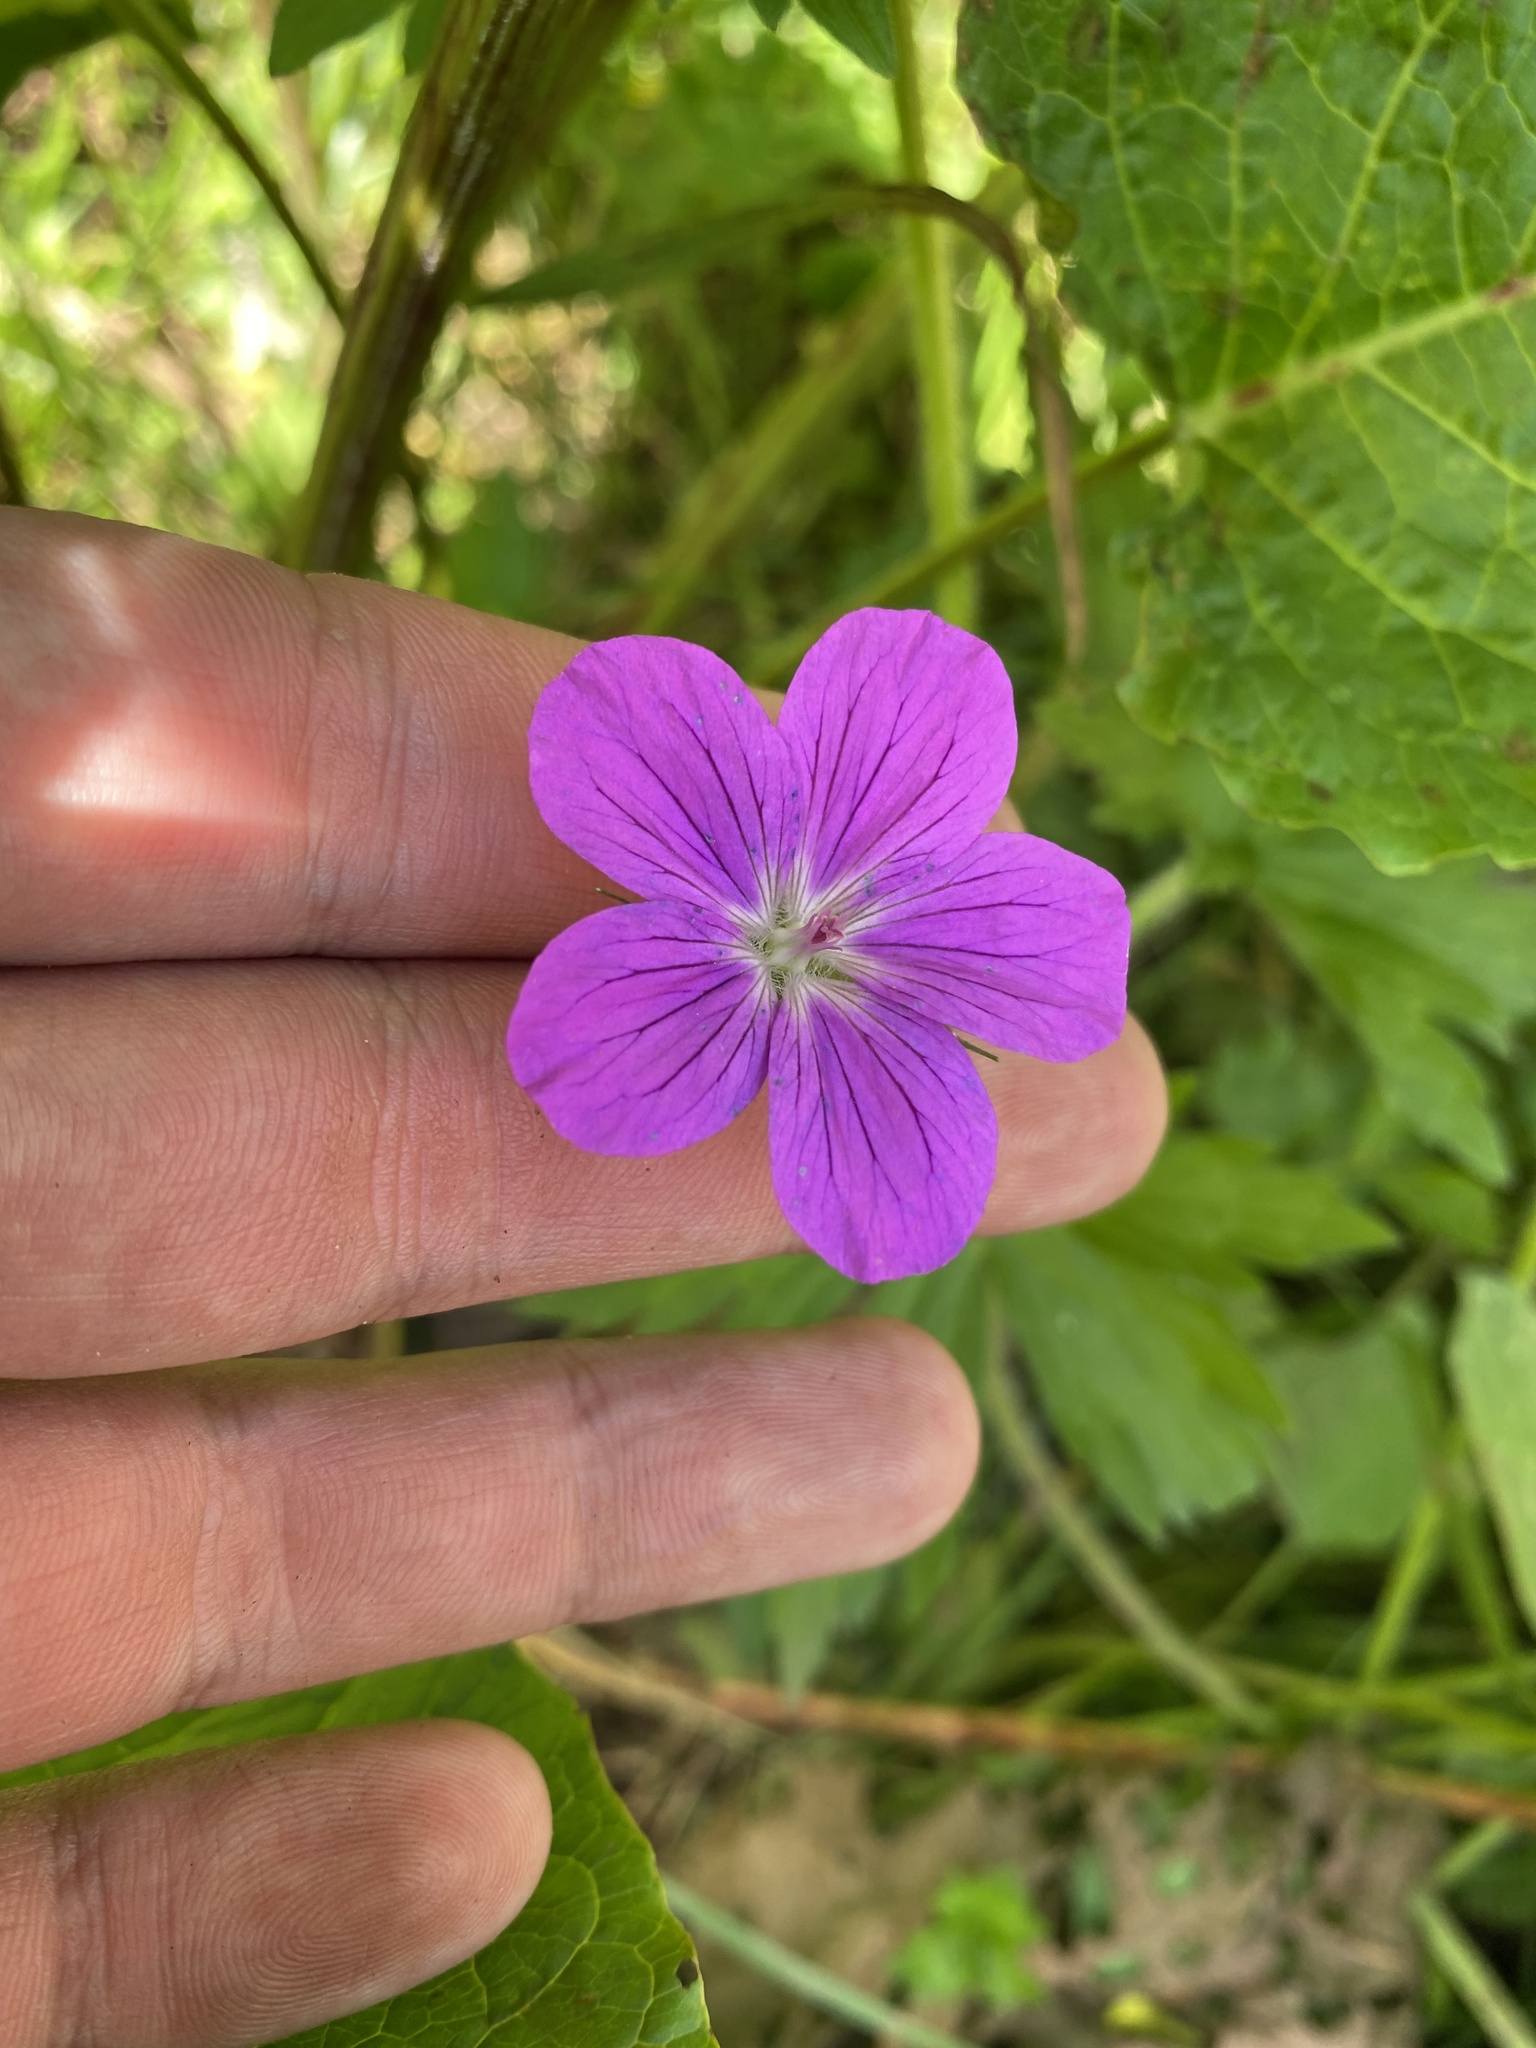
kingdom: Plantae
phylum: Tracheophyta
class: Magnoliopsida
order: Geraniales
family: Geraniaceae
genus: Geranium
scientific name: Geranium palustre
